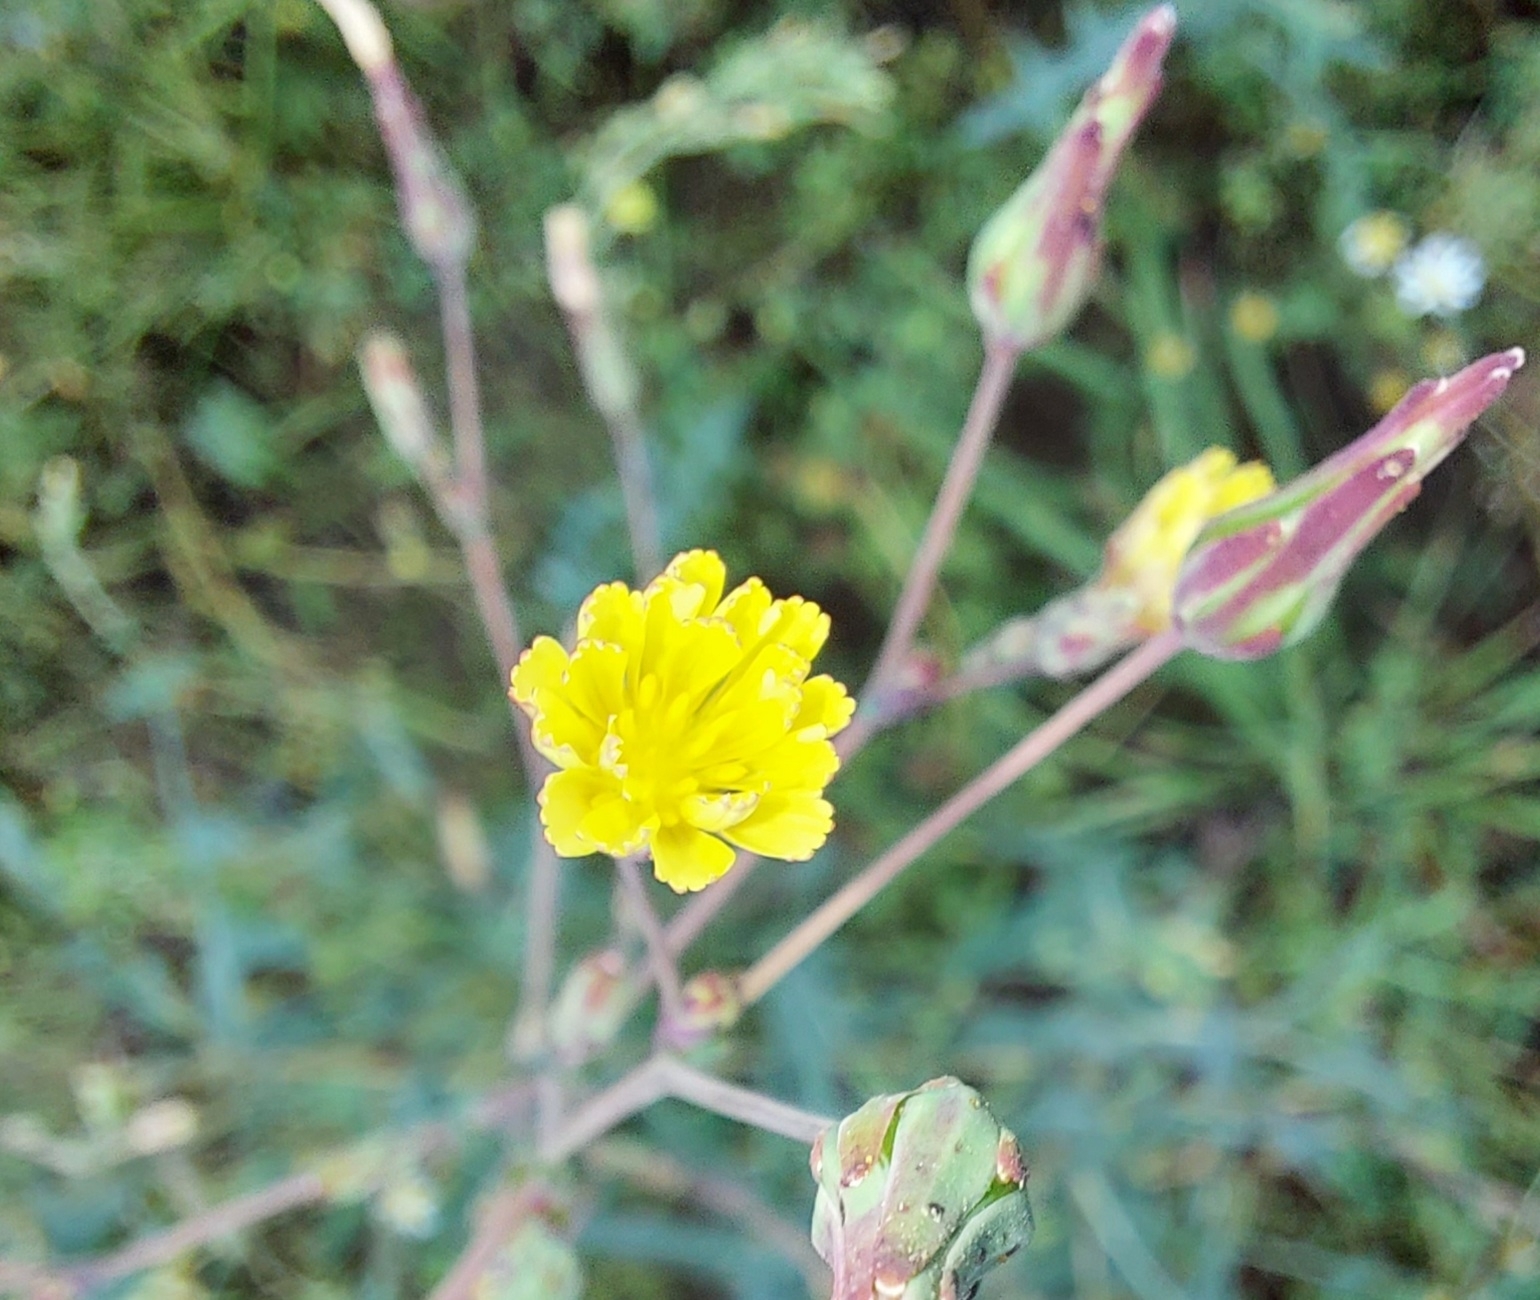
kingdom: Plantae
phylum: Tracheophyta
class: Magnoliopsida
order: Asterales
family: Asteraceae
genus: Lactuca
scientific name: Lactuca serriola
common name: Prickly lettuce
